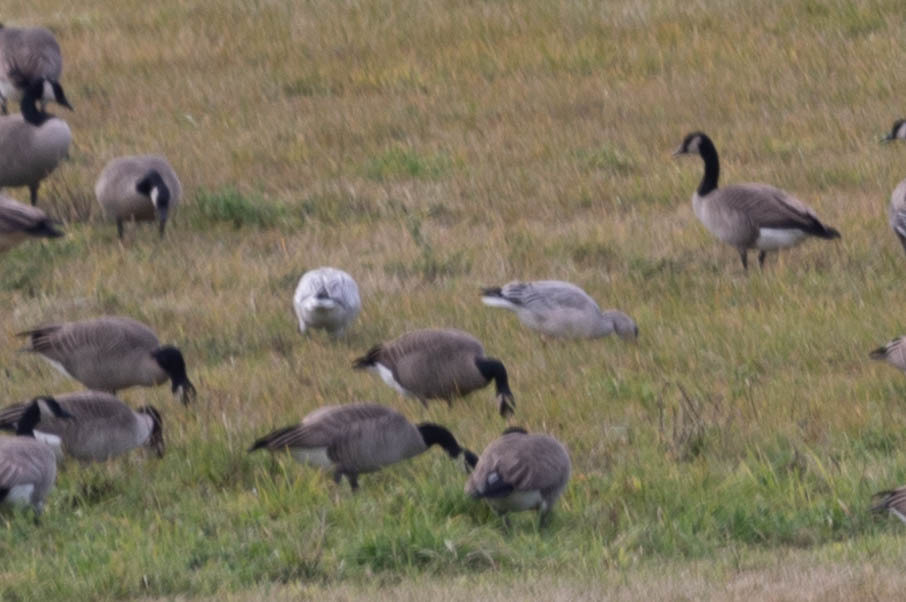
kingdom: Animalia
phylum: Chordata
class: Aves
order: Anseriformes
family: Anatidae
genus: Anser
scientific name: Anser caerulescens
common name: Snow goose
